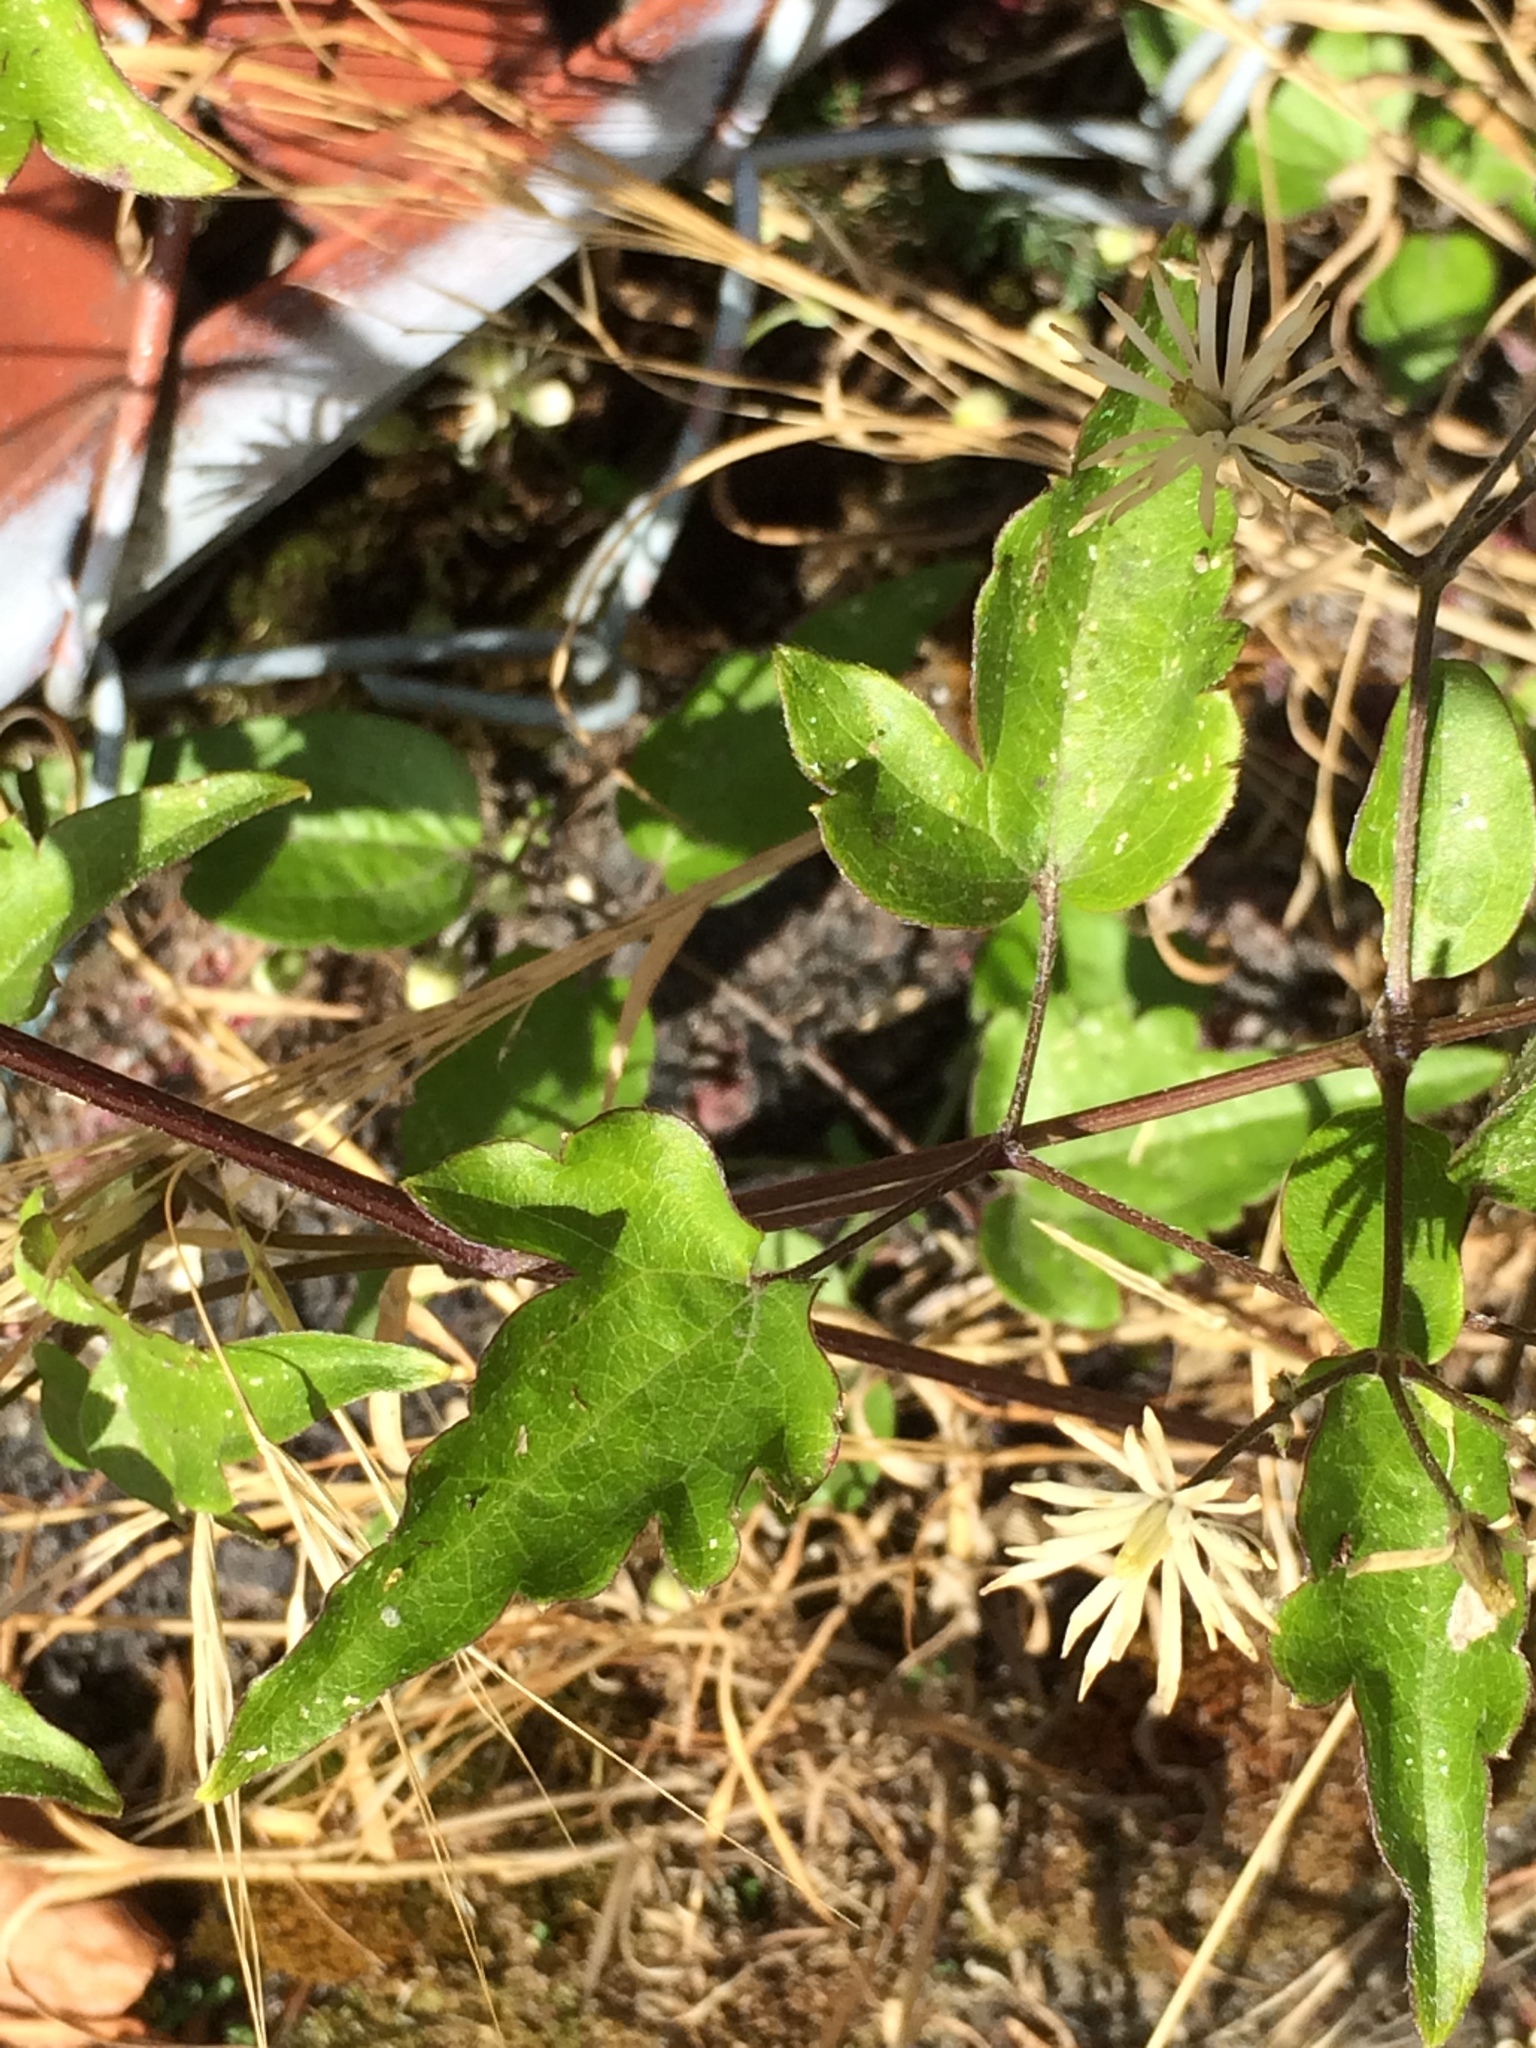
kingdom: Plantae
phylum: Tracheophyta
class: Magnoliopsida
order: Ranunculales
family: Ranunculaceae
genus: Clematis
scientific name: Clematis vitalba
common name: Evergreen clematis
